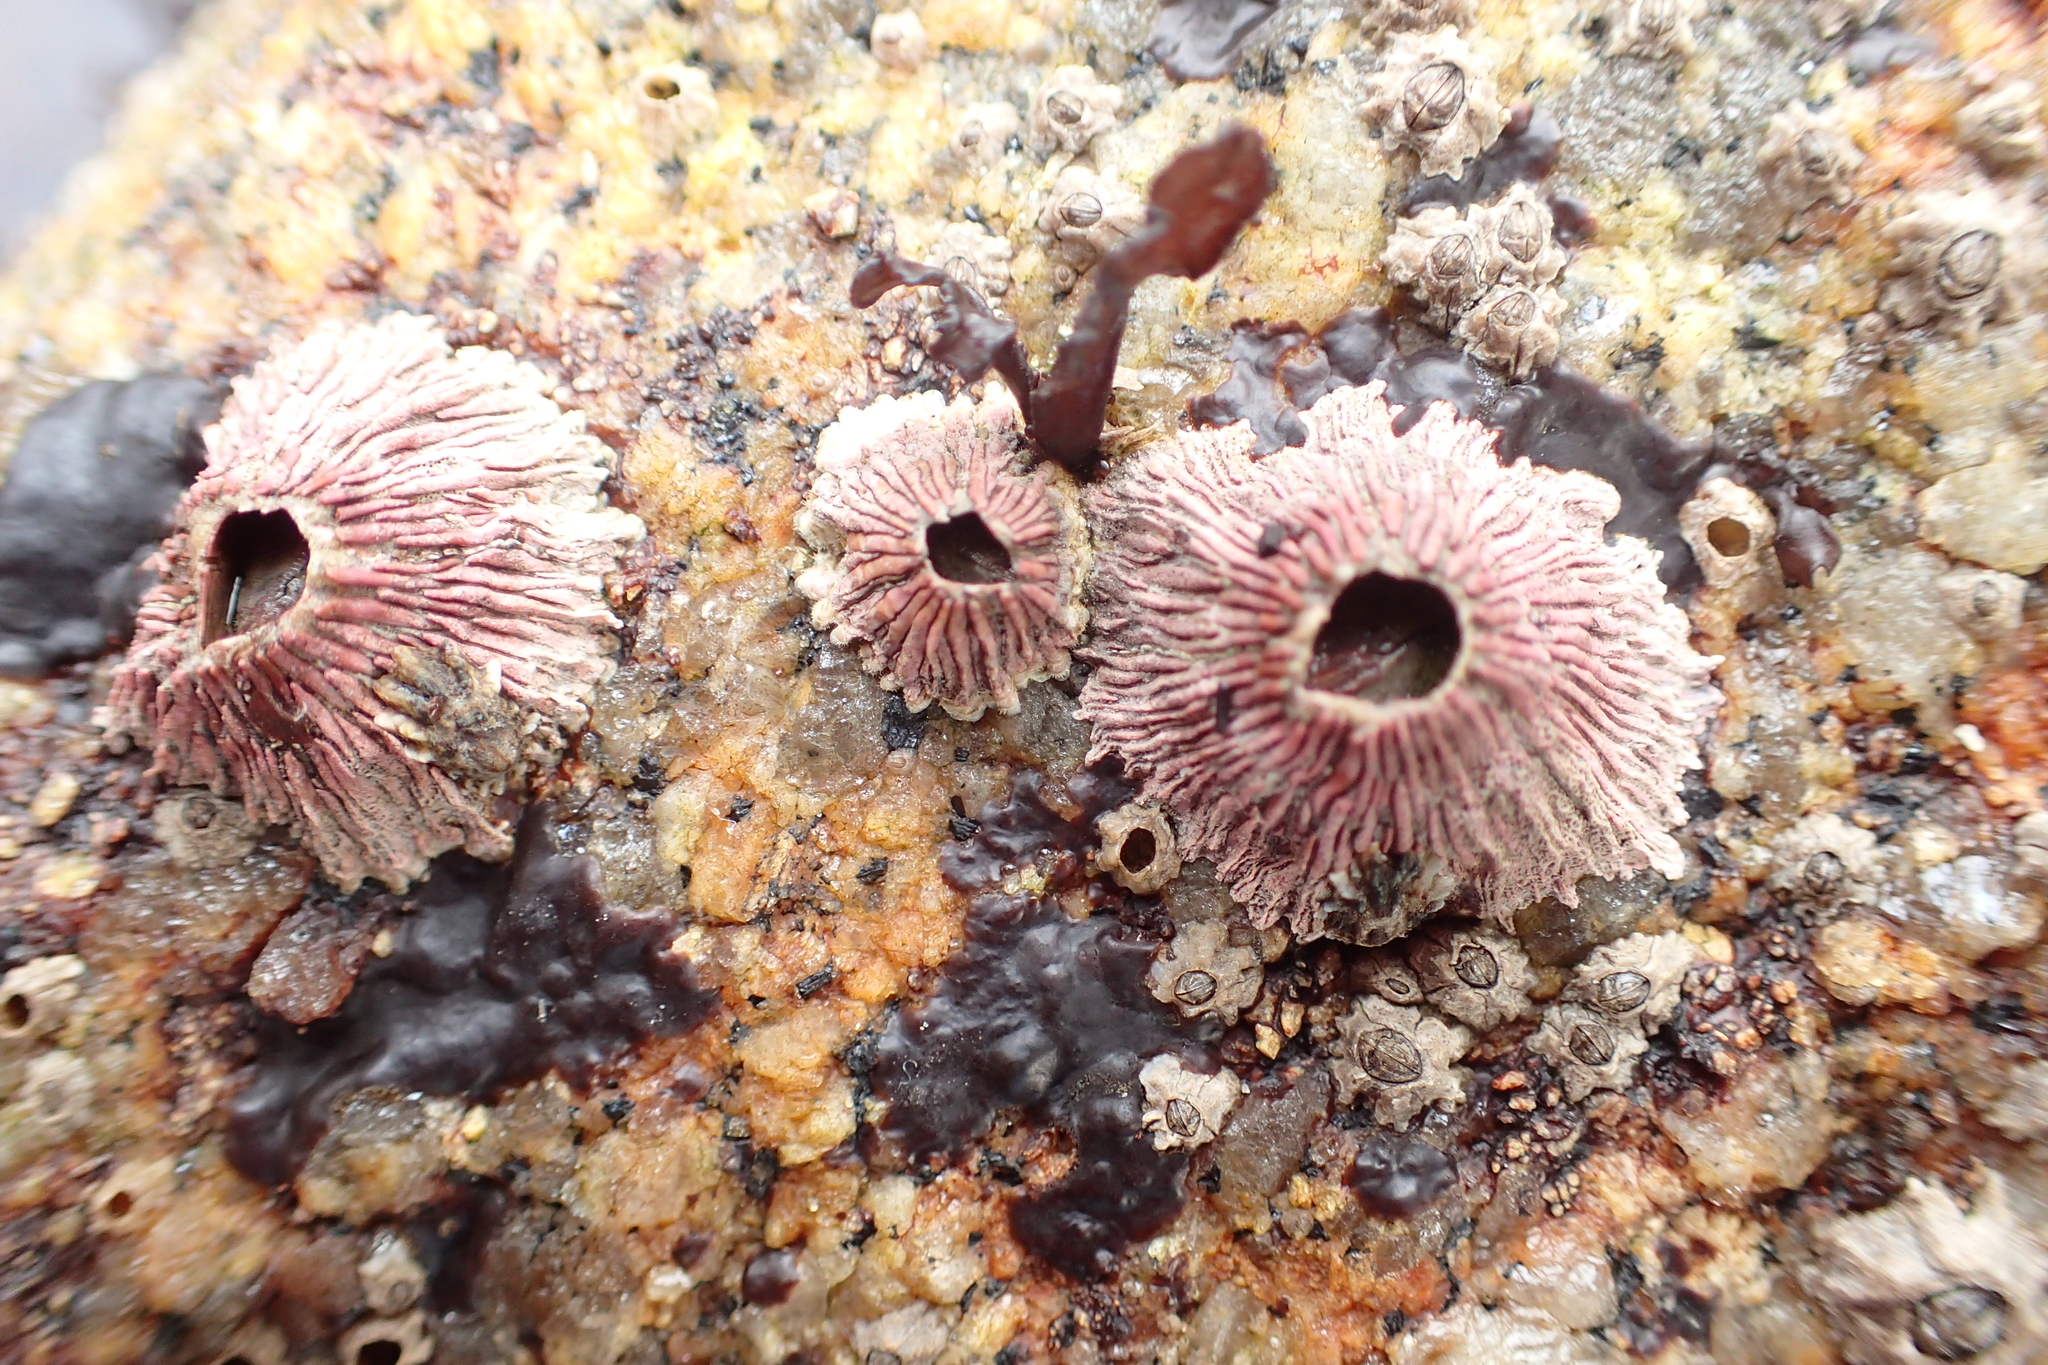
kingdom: Animalia
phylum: Arthropoda
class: Maxillopoda
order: Sessilia
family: Tetraclitidae
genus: Tetraclita
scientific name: Tetraclita rubescens
